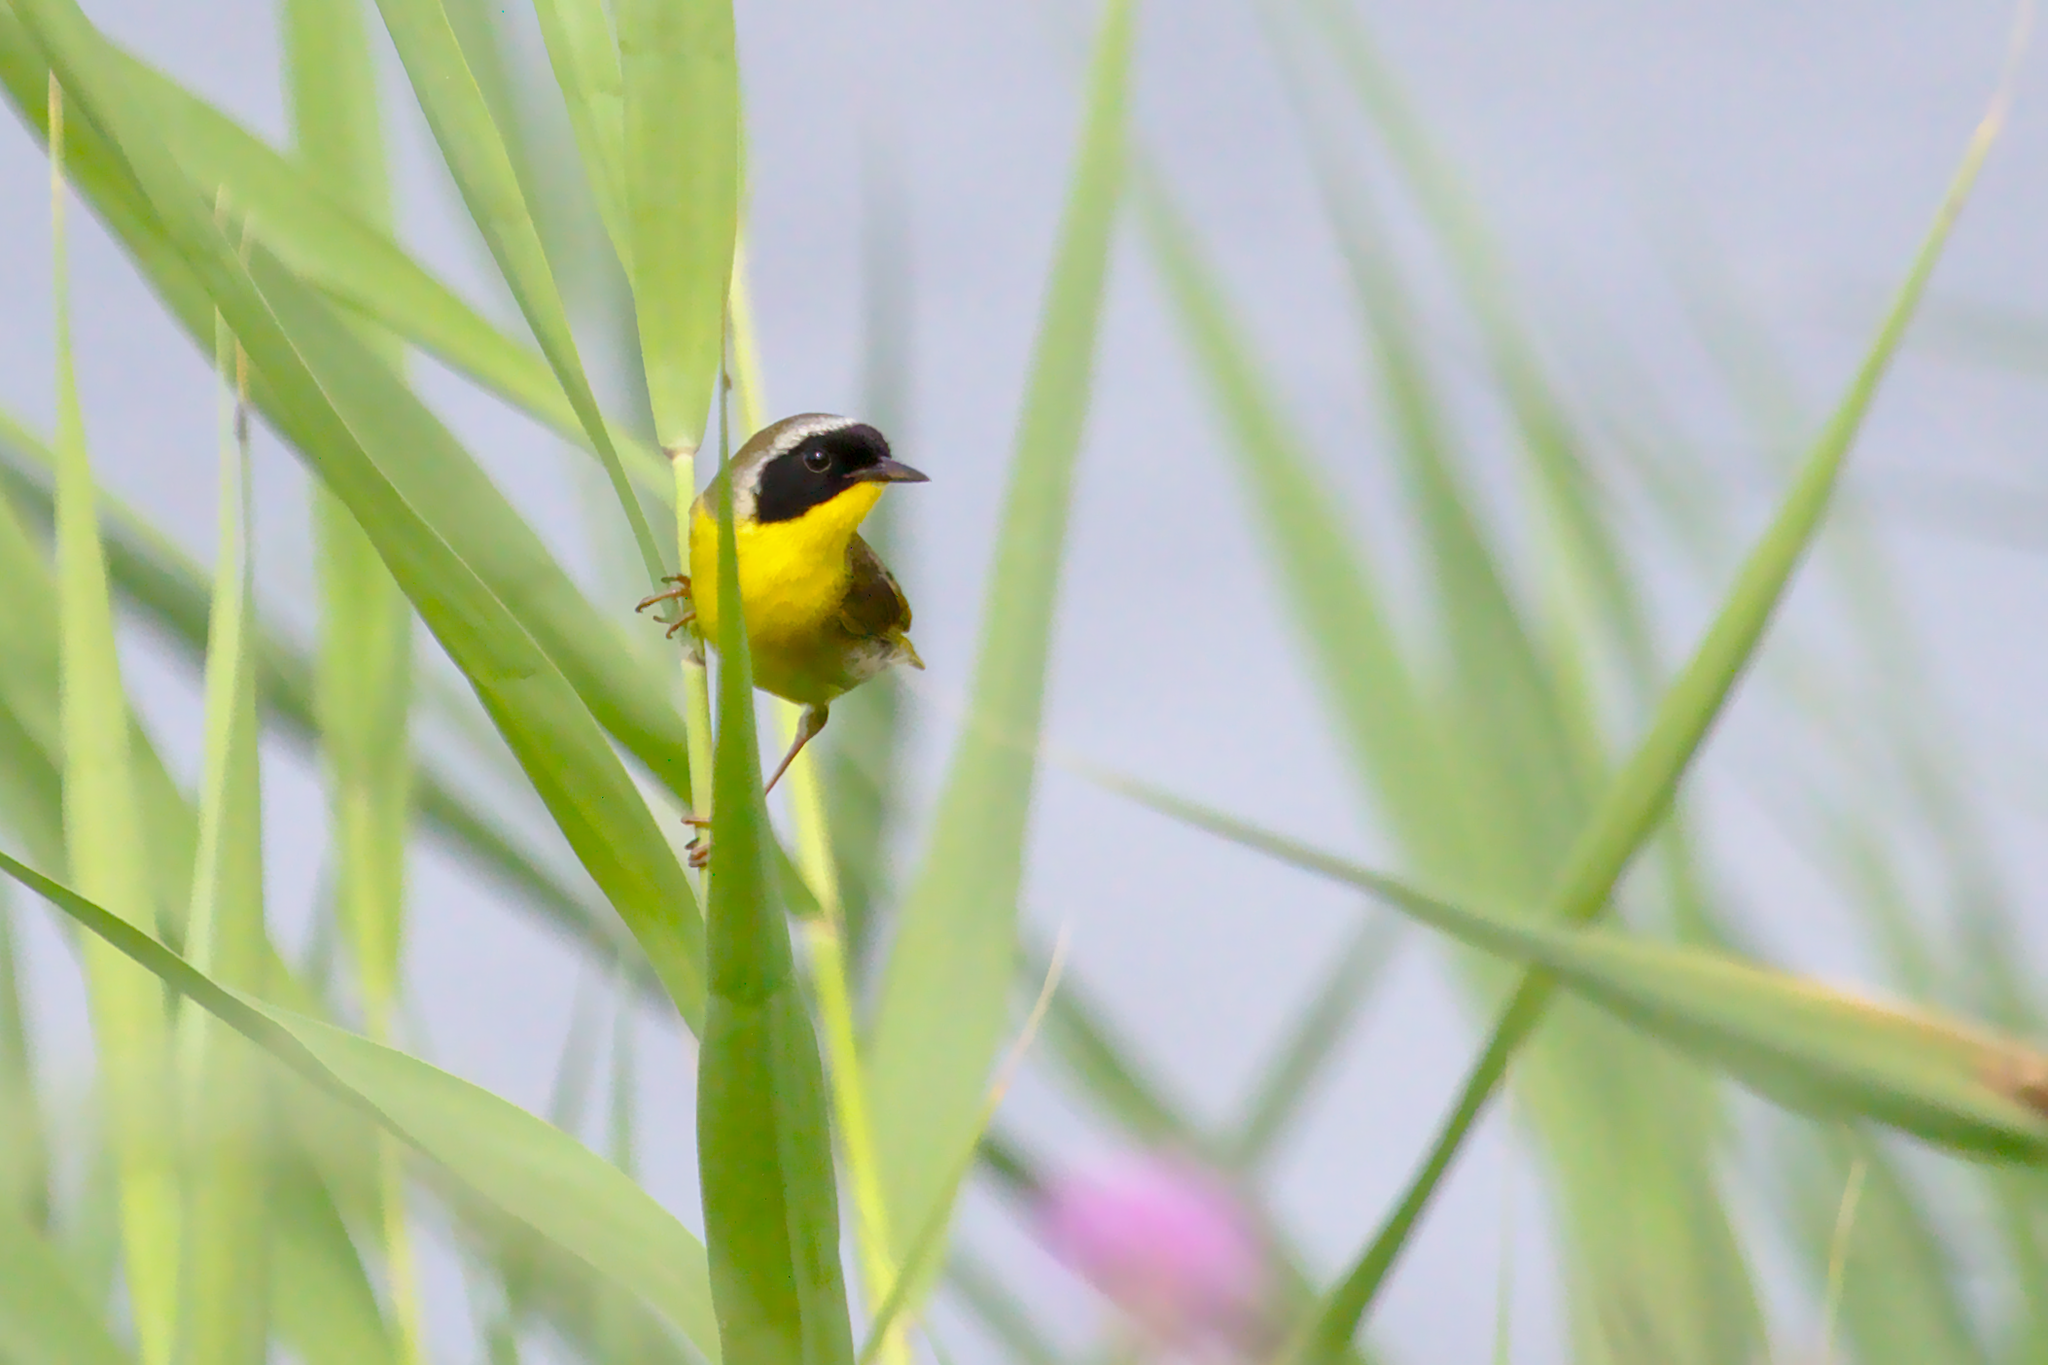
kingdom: Animalia
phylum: Chordata
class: Aves
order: Passeriformes
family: Parulidae
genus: Geothlypis
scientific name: Geothlypis trichas
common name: Common yellowthroat
